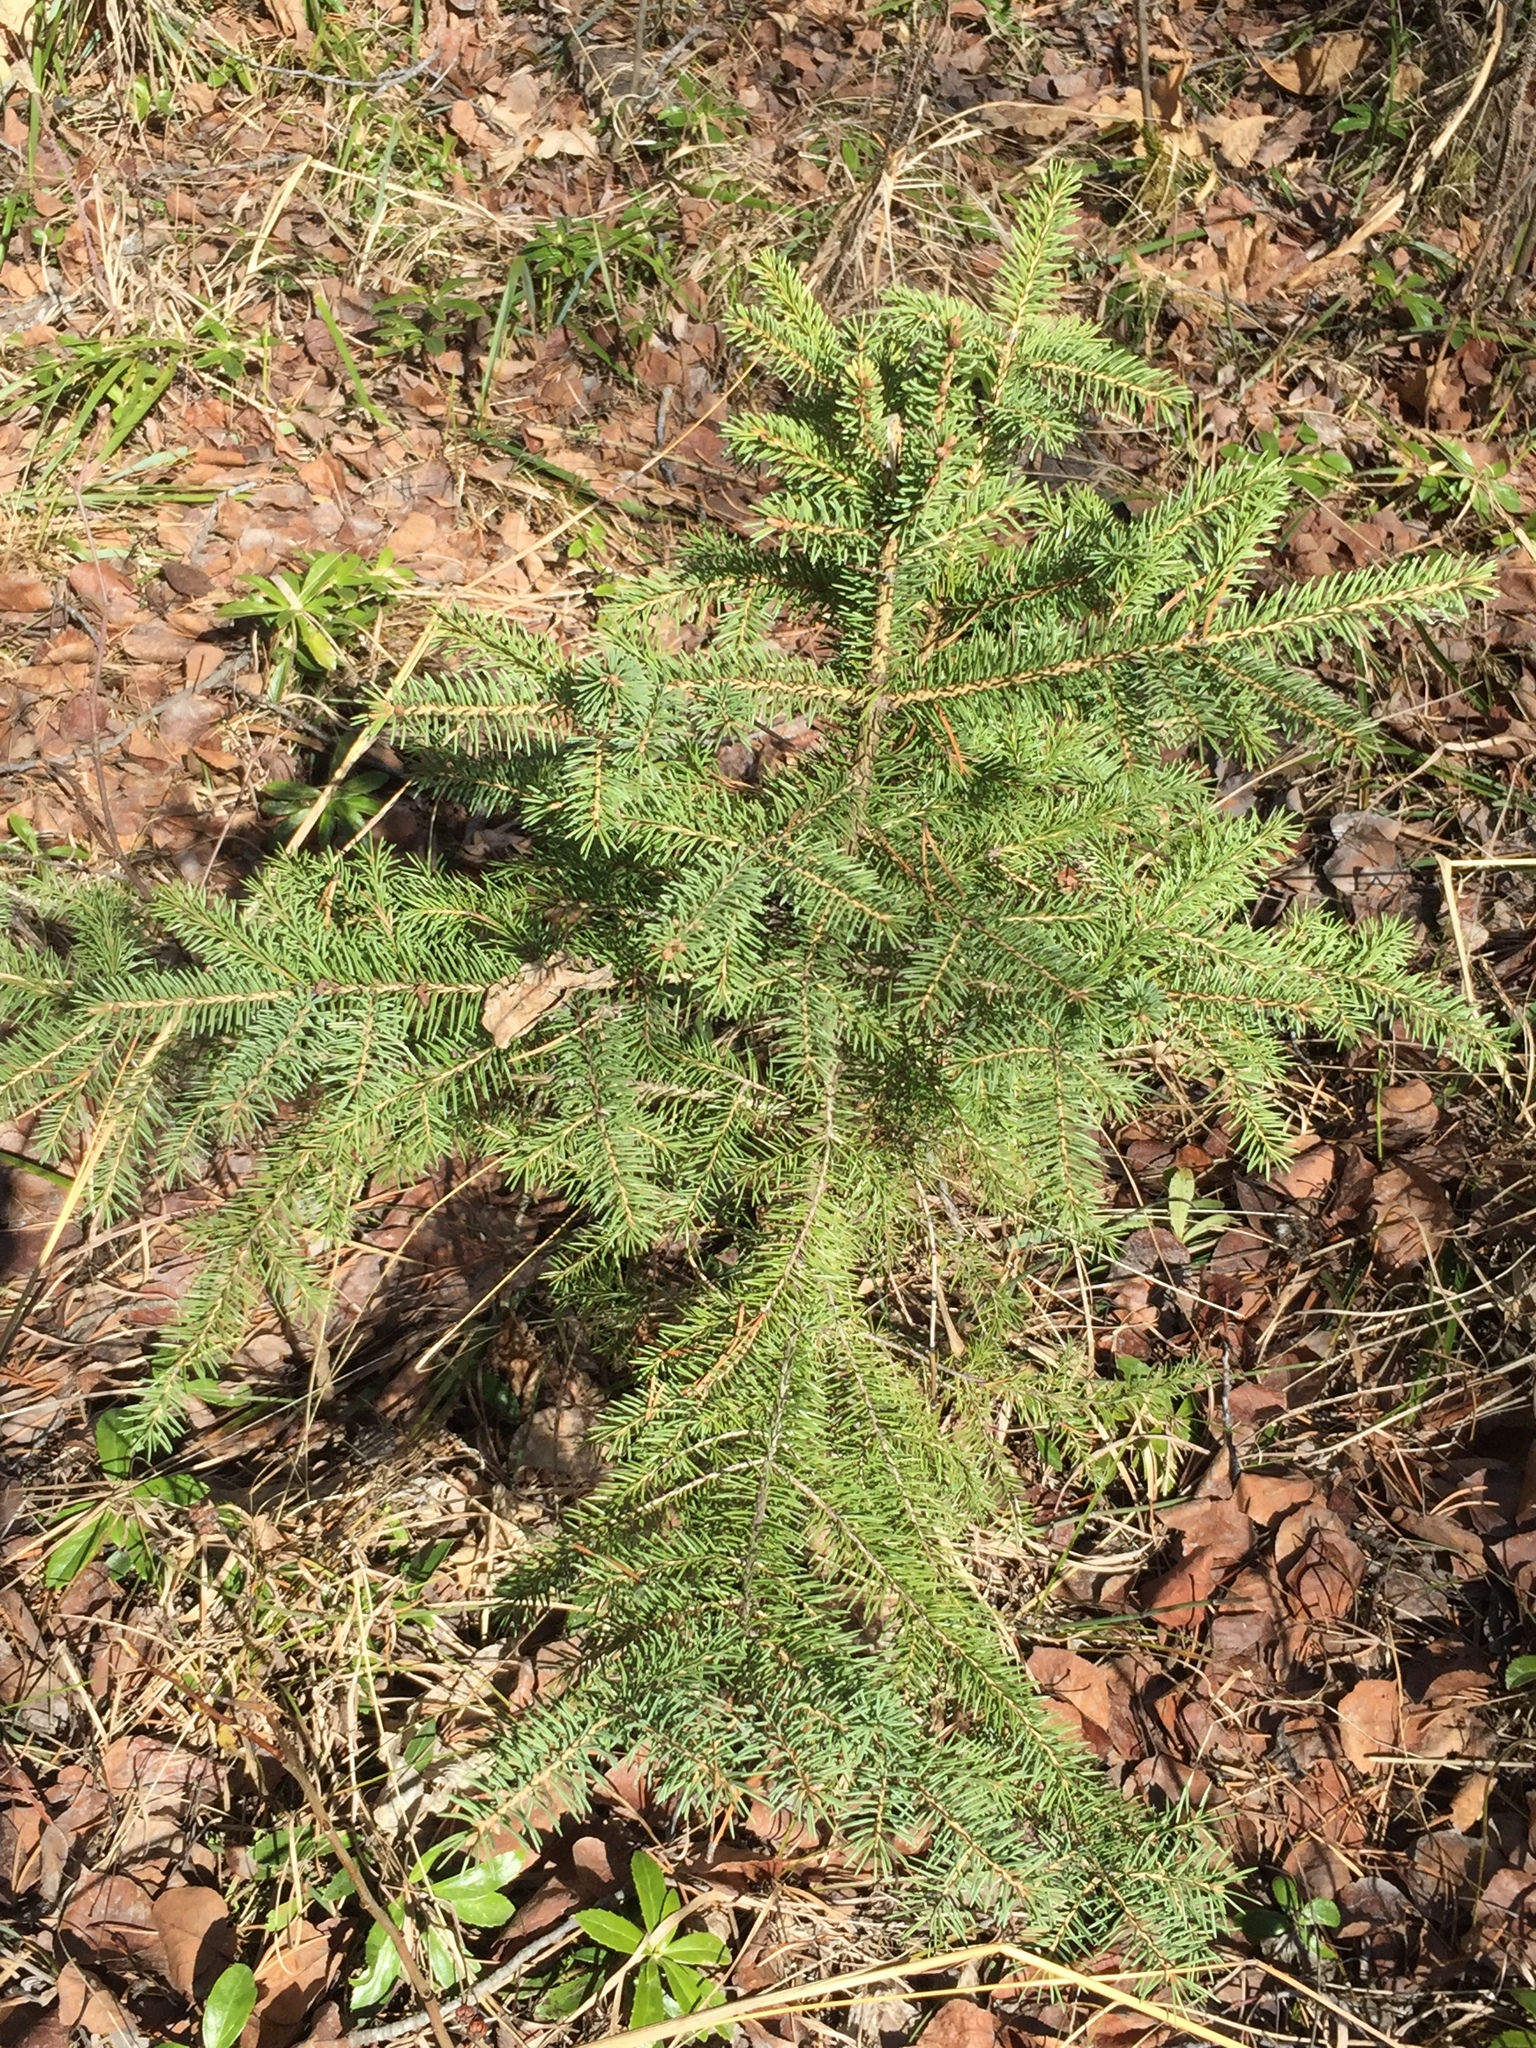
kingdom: Plantae
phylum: Tracheophyta
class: Pinopsida
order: Pinales
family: Pinaceae
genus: Picea
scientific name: Picea glauca
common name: White spruce
